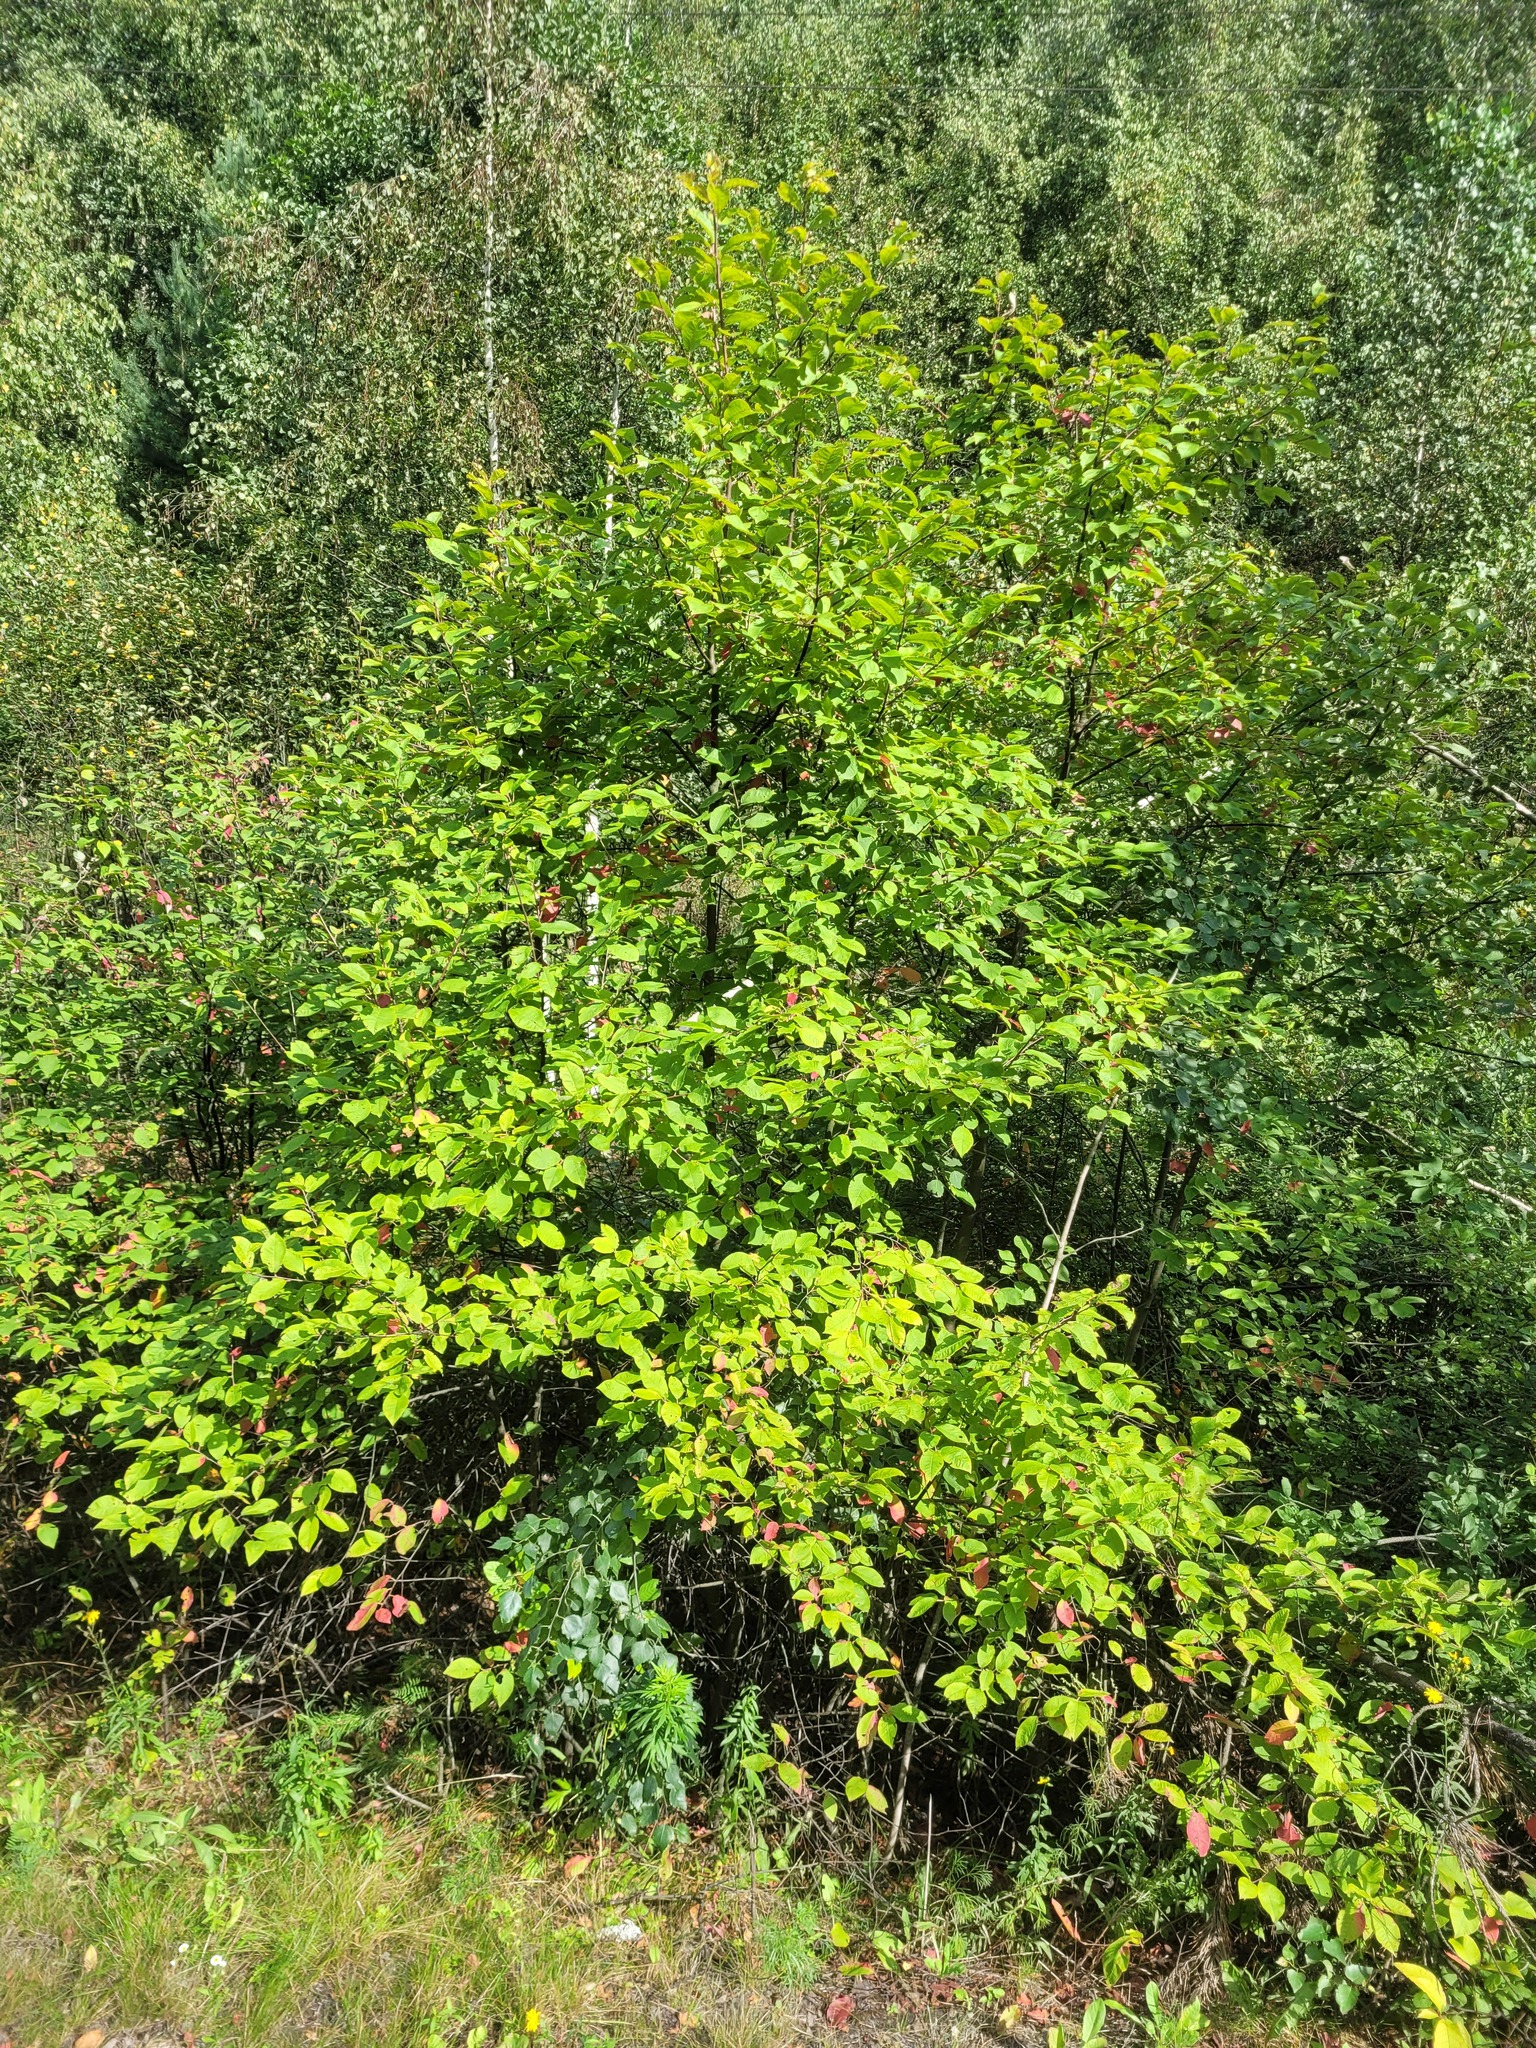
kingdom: Plantae
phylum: Tracheophyta
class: Magnoliopsida
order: Rosales
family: Rosaceae
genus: Prunus
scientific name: Prunus padus
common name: Bird cherry
